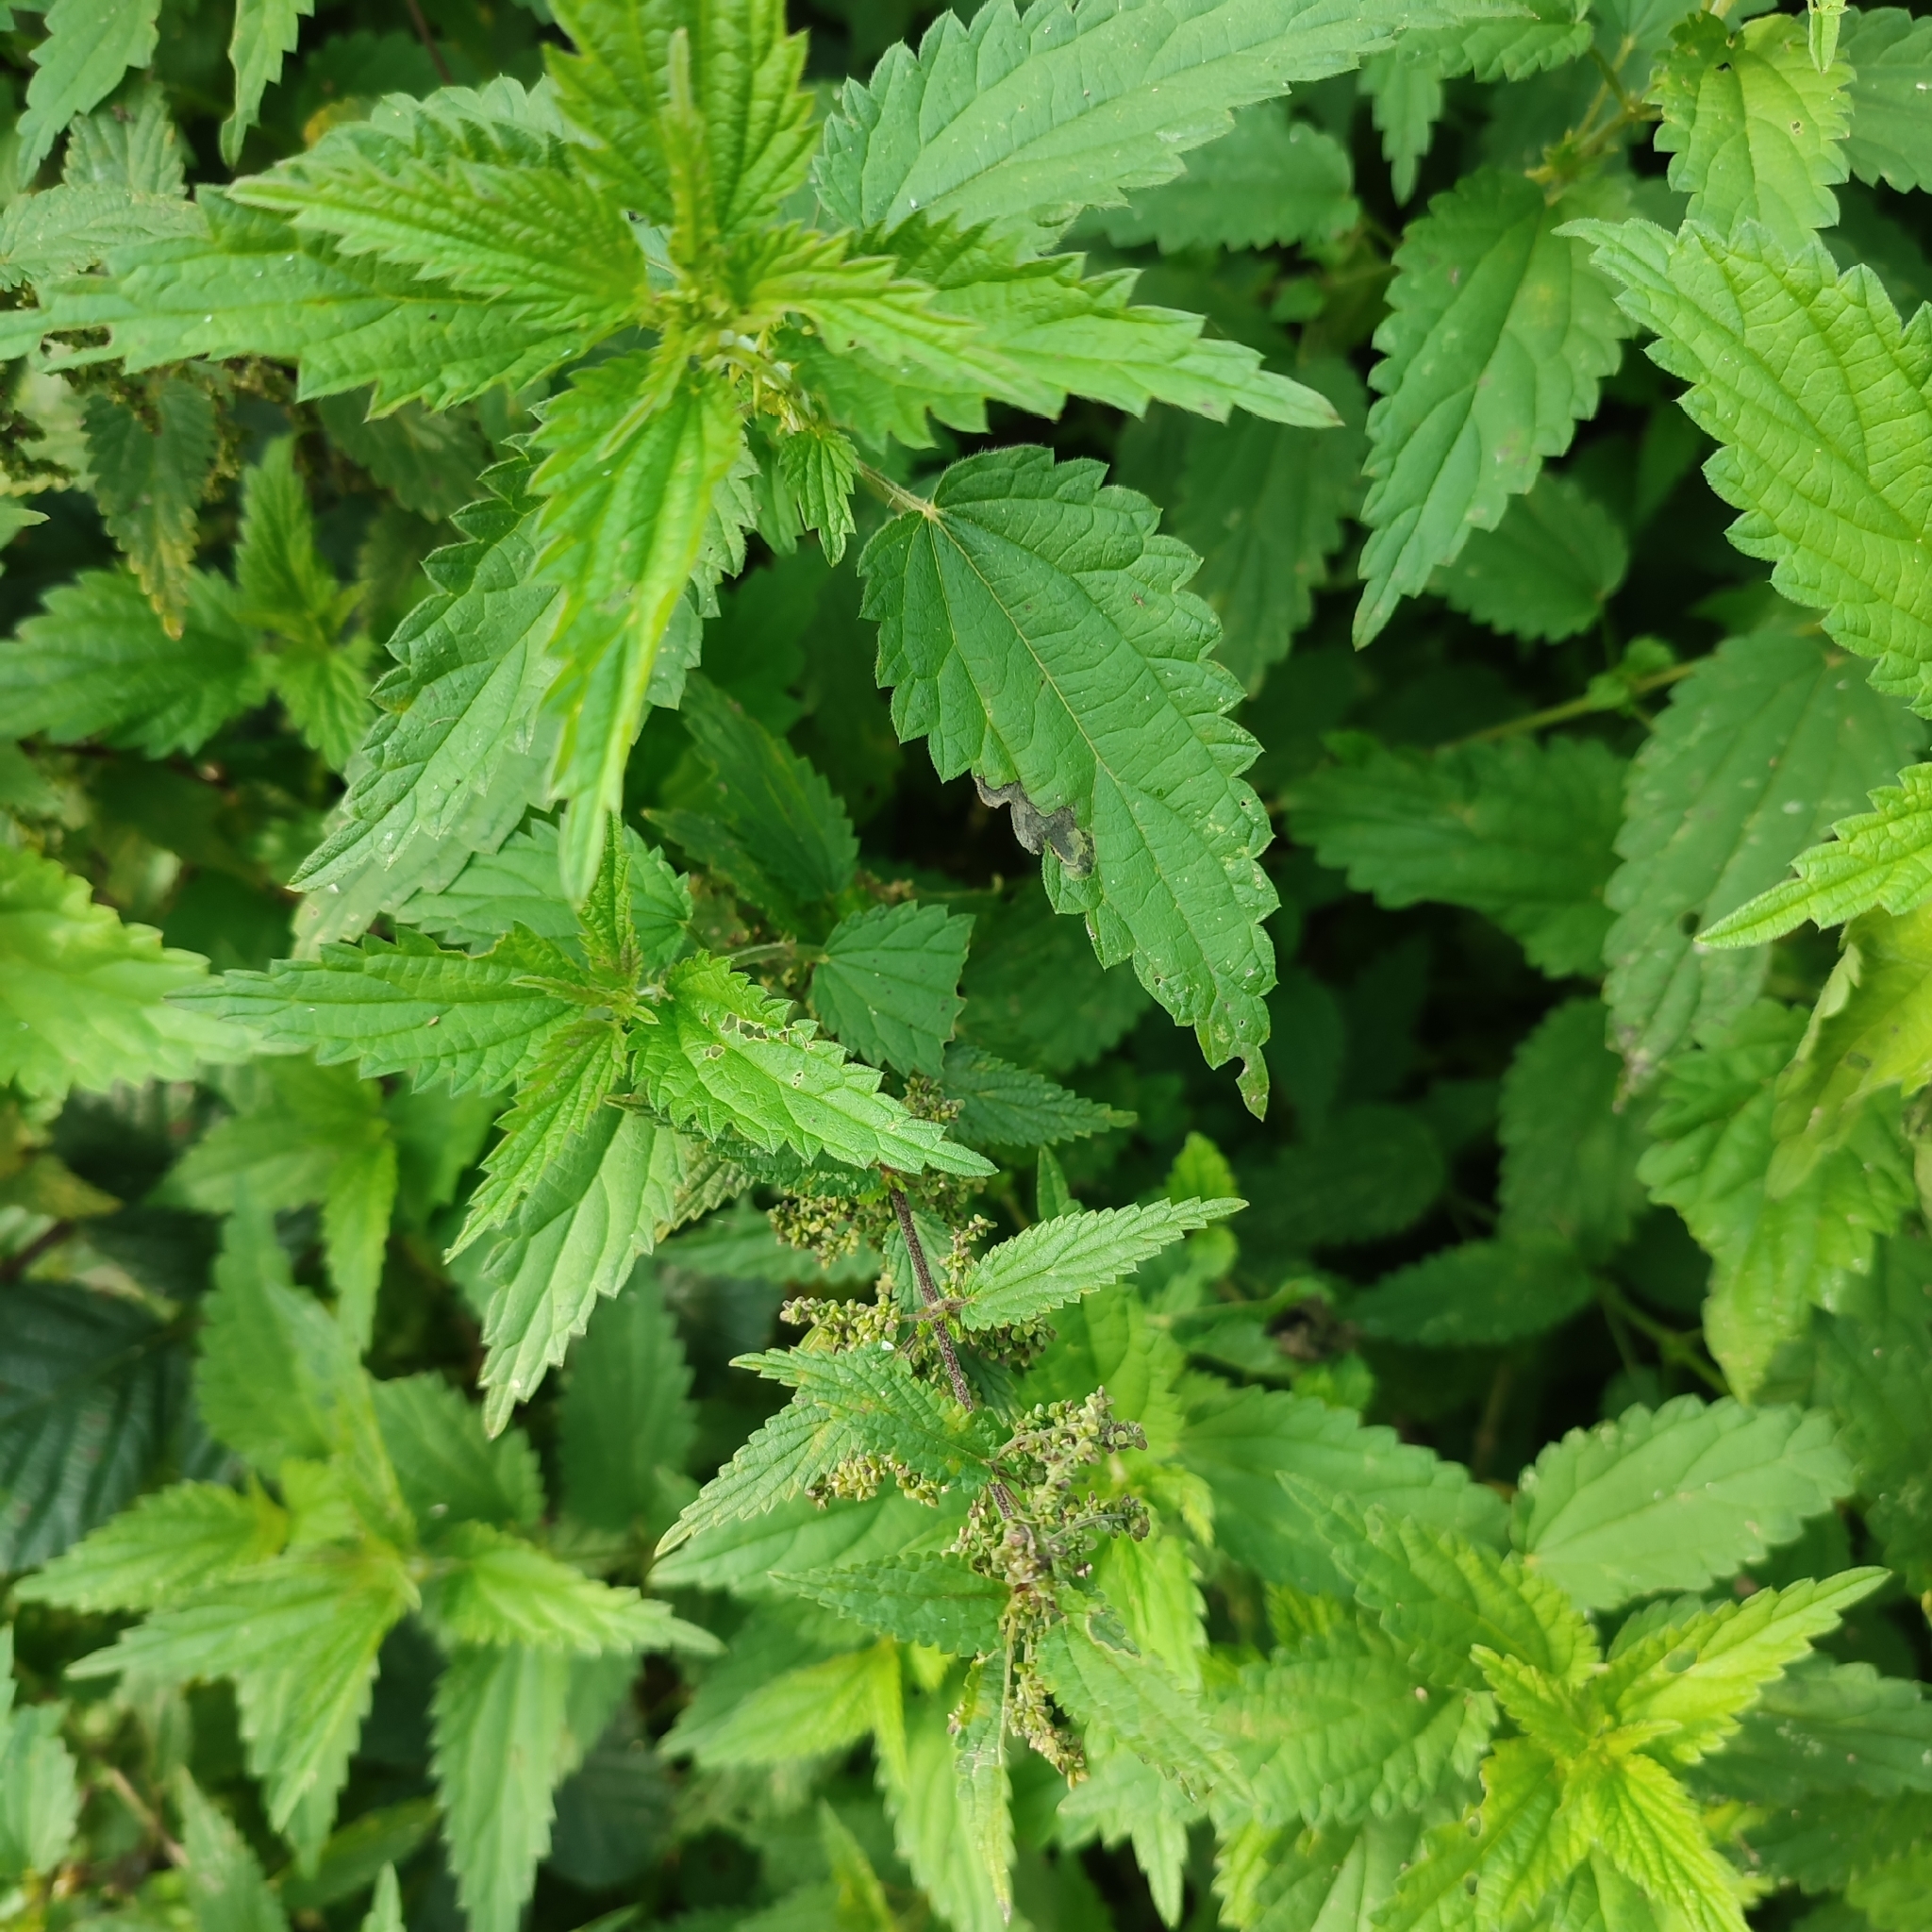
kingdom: Plantae
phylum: Tracheophyta
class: Magnoliopsida
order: Rosales
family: Urticaceae
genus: Urtica
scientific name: Urtica dioica
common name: Common nettle
